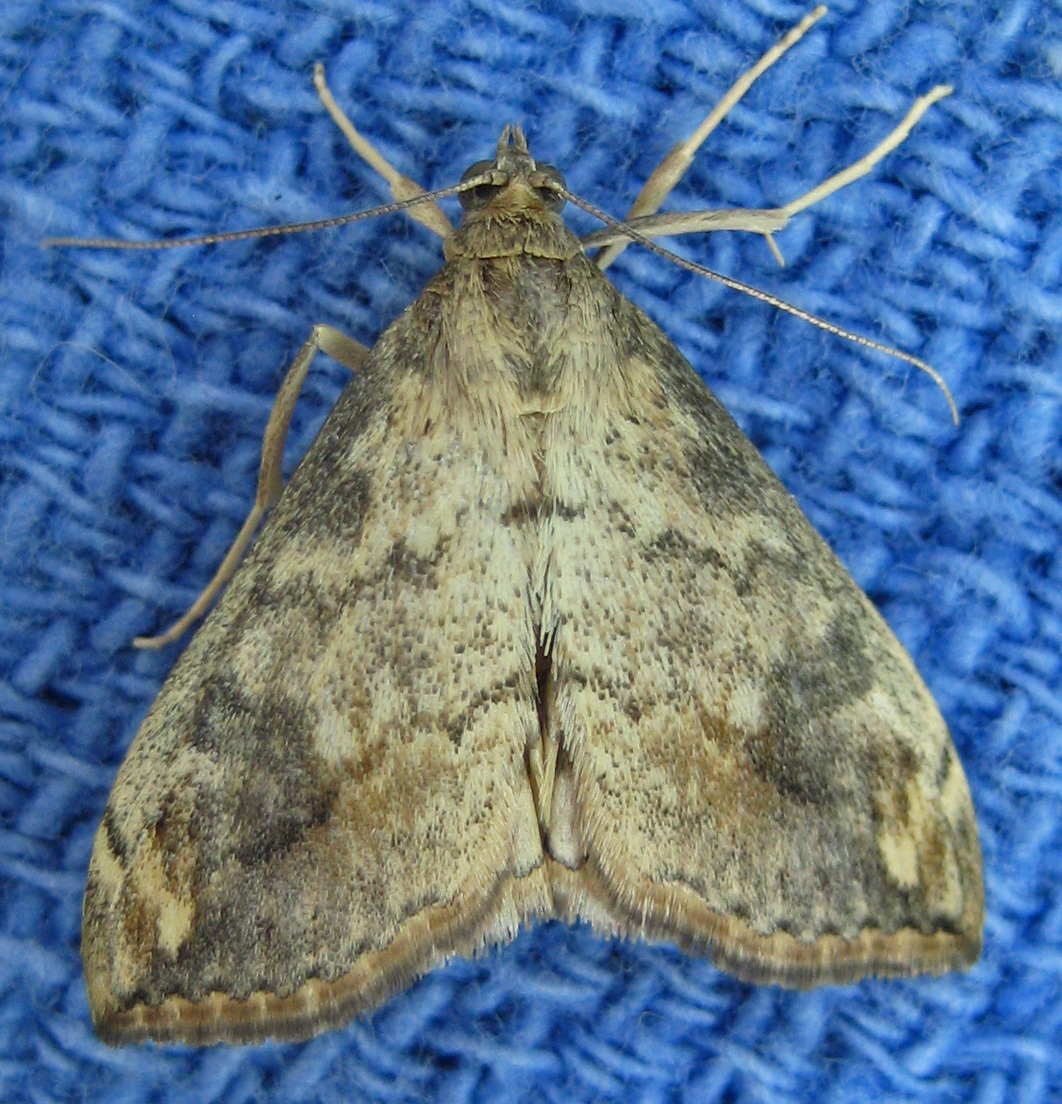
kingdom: Animalia
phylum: Arthropoda
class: Insecta
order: Lepidoptera
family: Crambidae
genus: Evergestis
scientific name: Evergestis rimosalis
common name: Cross-striped cabbageworm moth
